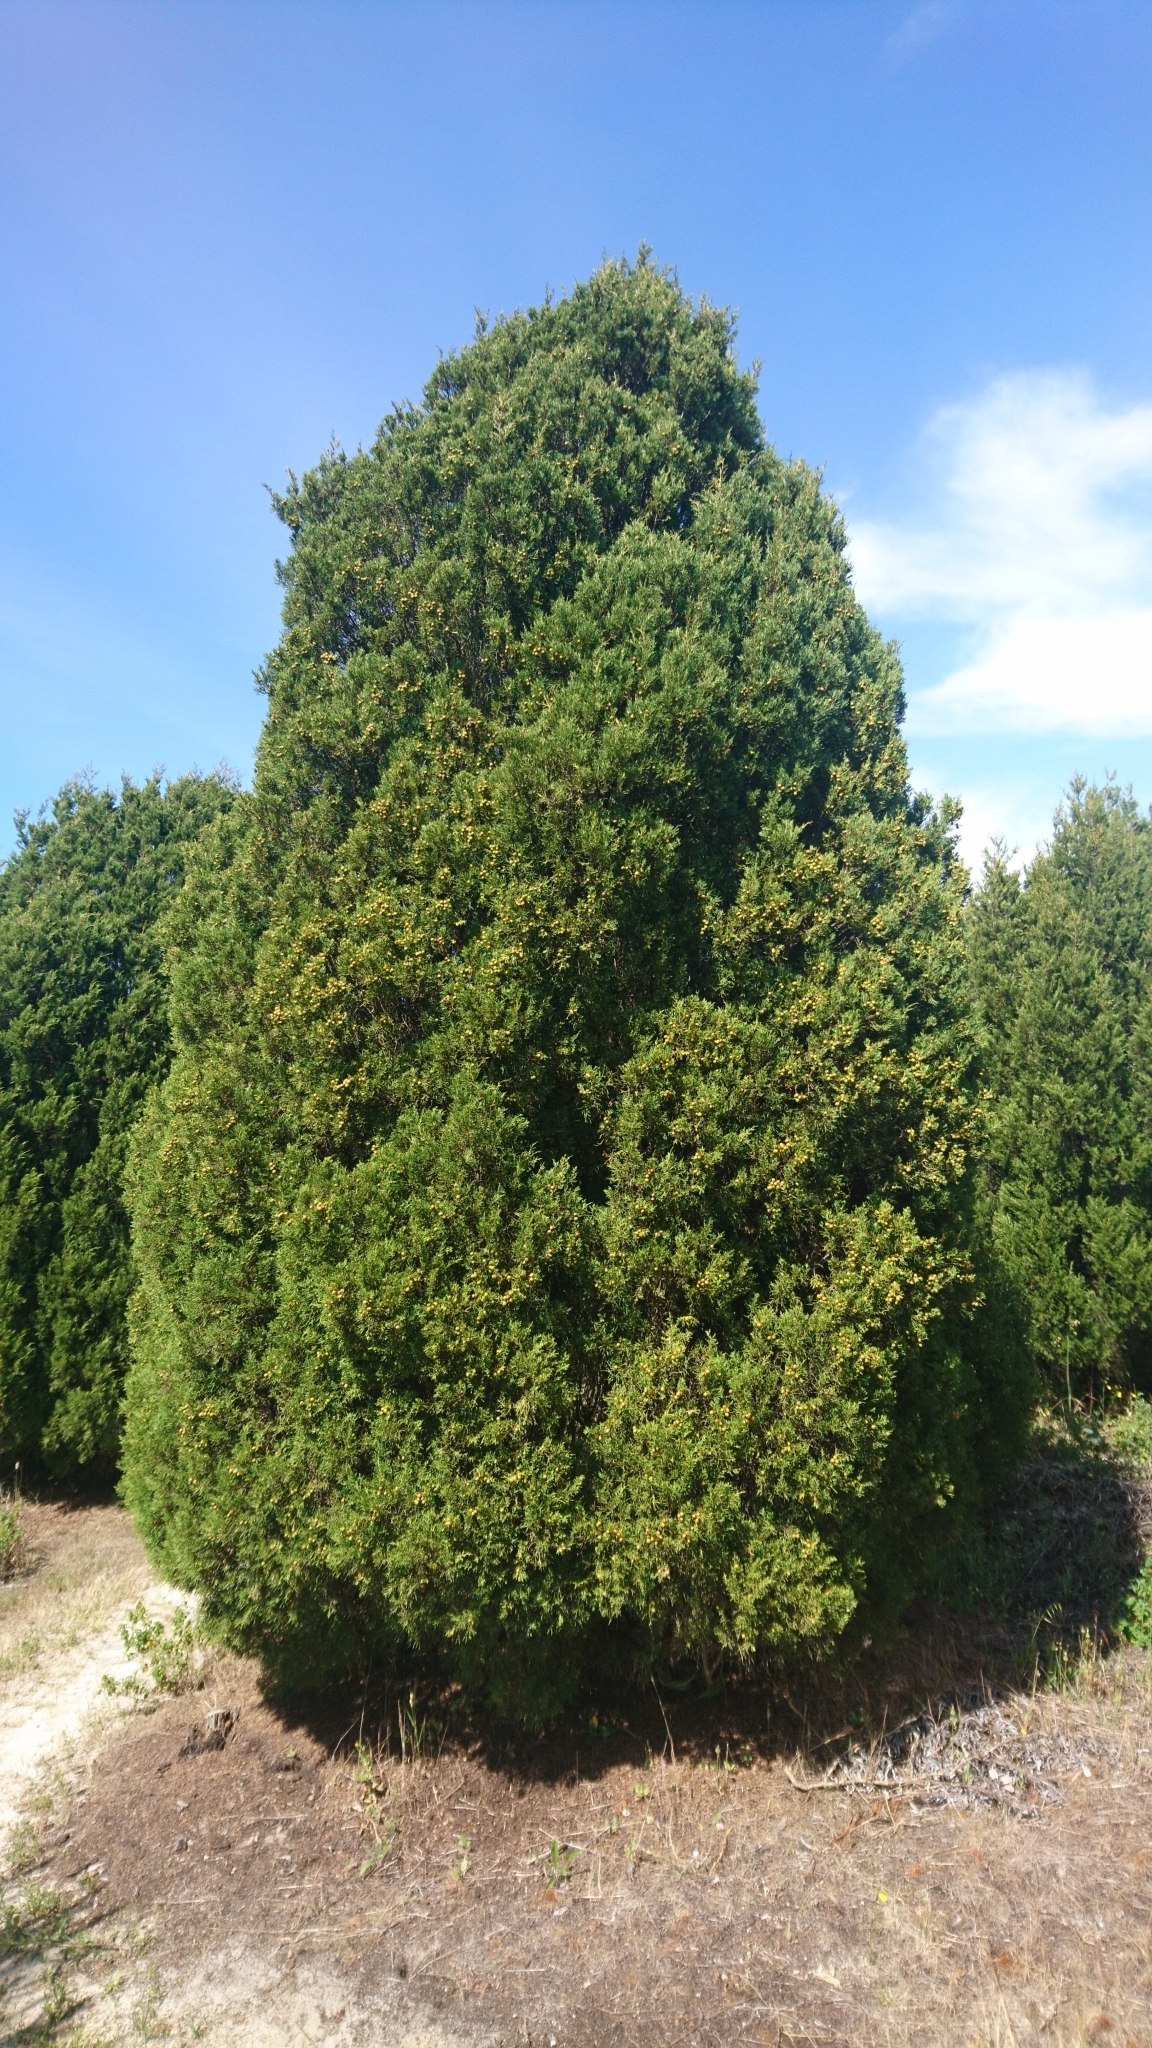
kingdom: Plantae
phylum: Tracheophyta
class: Pinopsida
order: Pinales
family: Cupressaceae
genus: Juniperus
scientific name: Juniperus phoenicea
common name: Phoenician juniper
